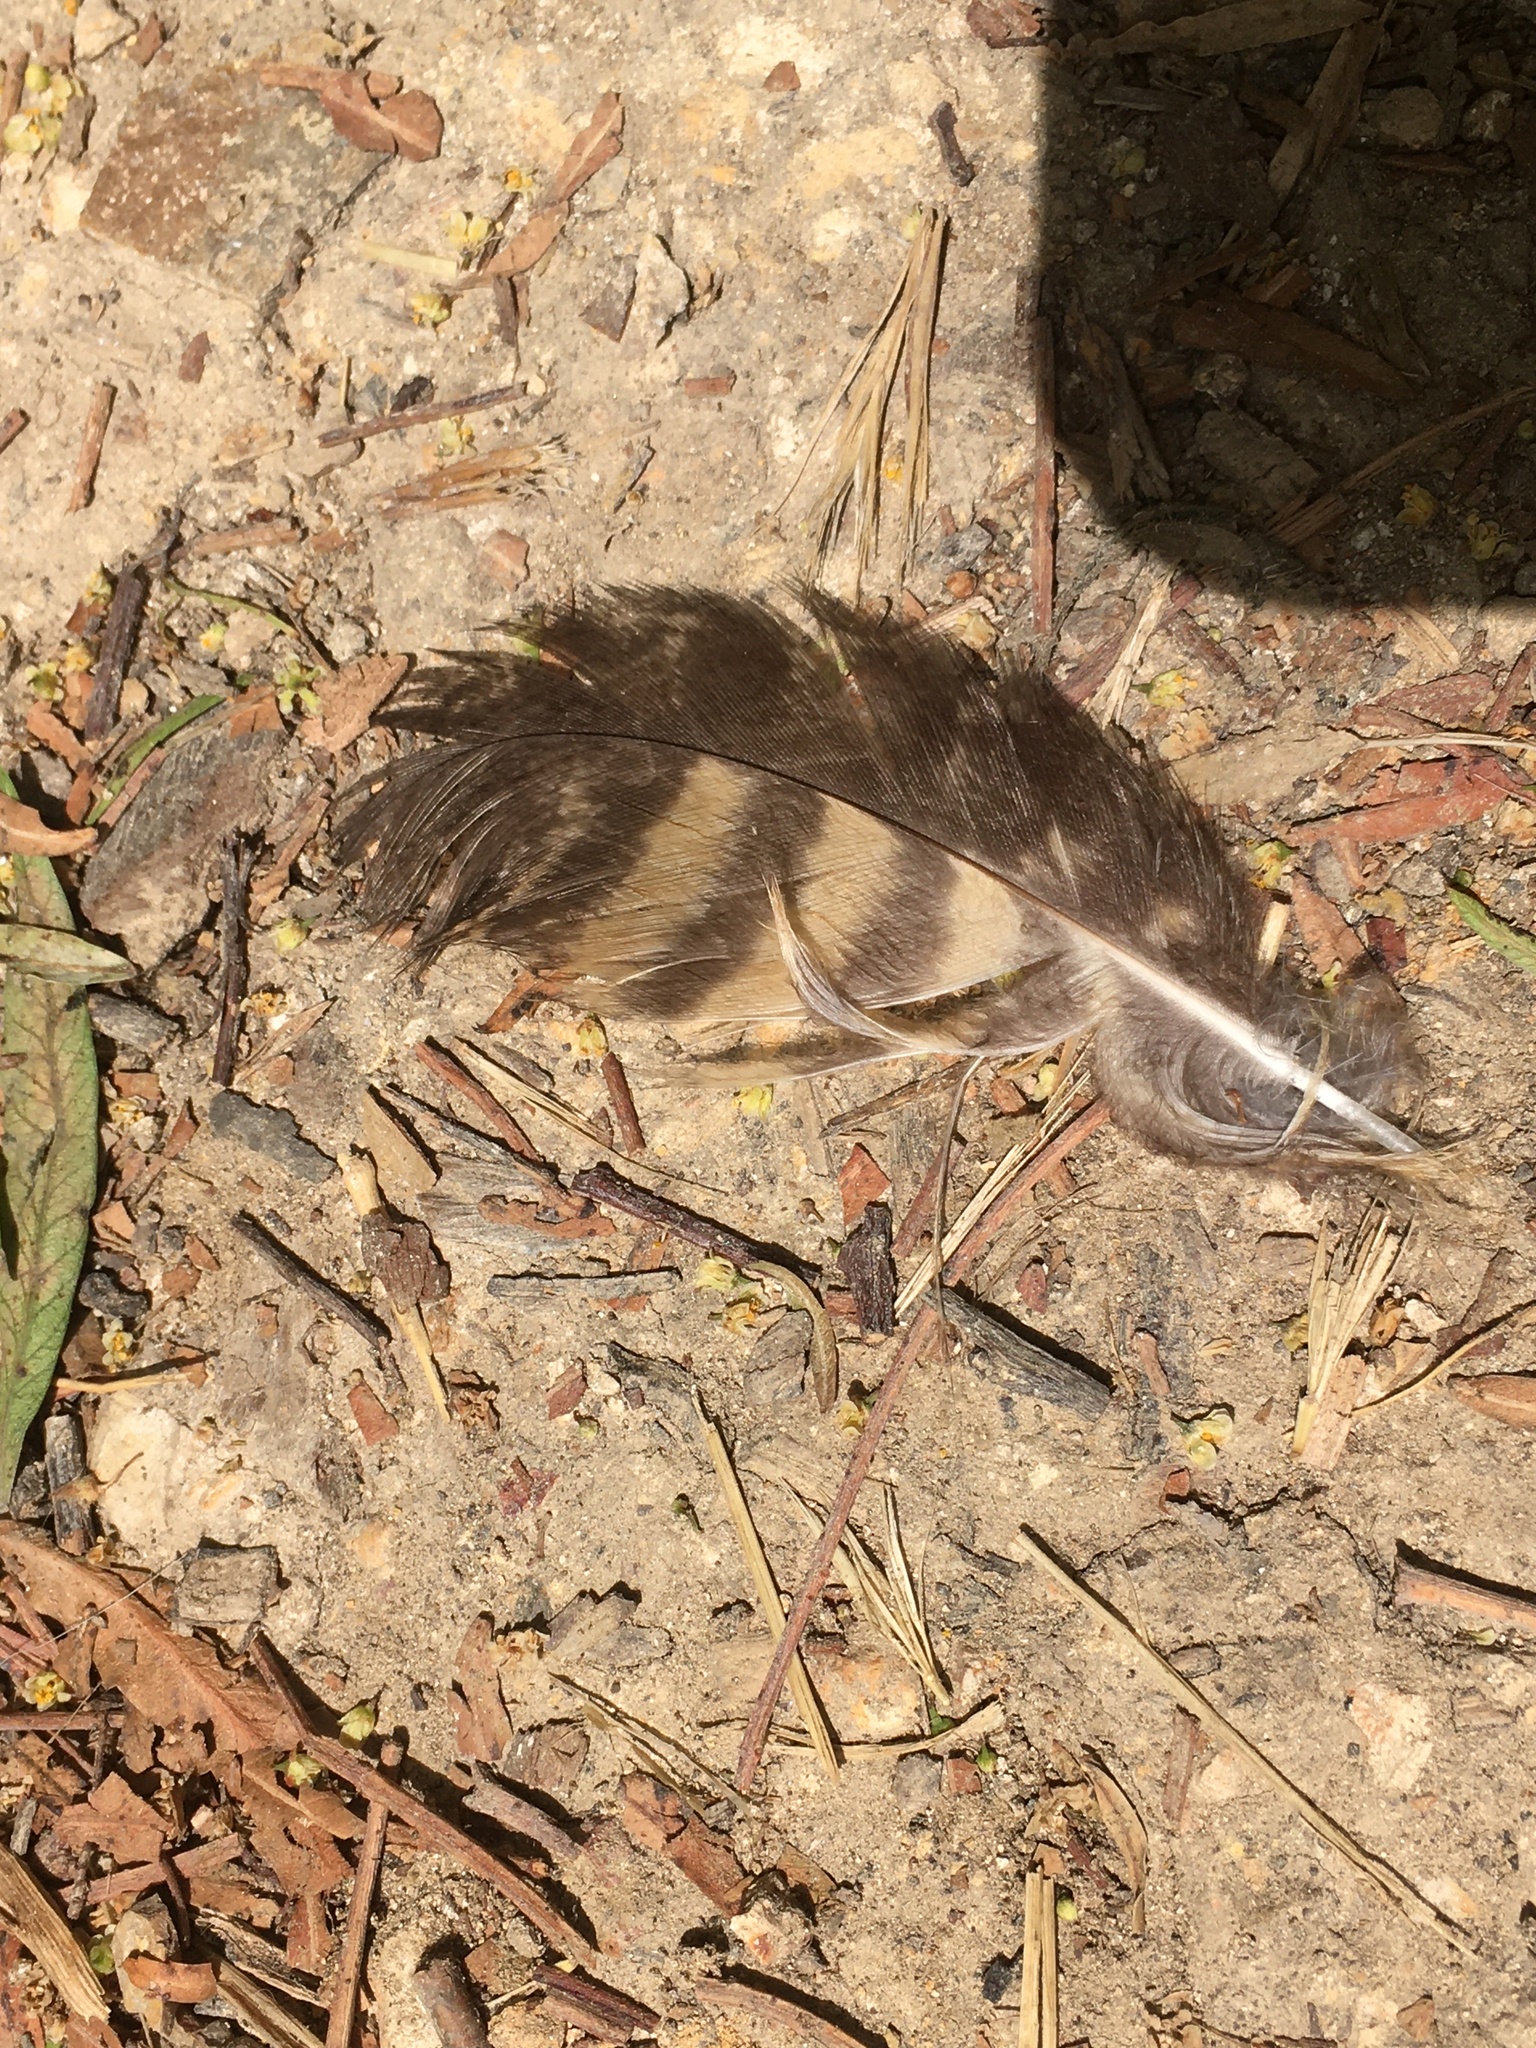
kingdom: Animalia
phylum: Chordata
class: Aves
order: Strigiformes
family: Strigidae
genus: Bubo
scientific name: Bubo virginianus
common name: Great horned owl
